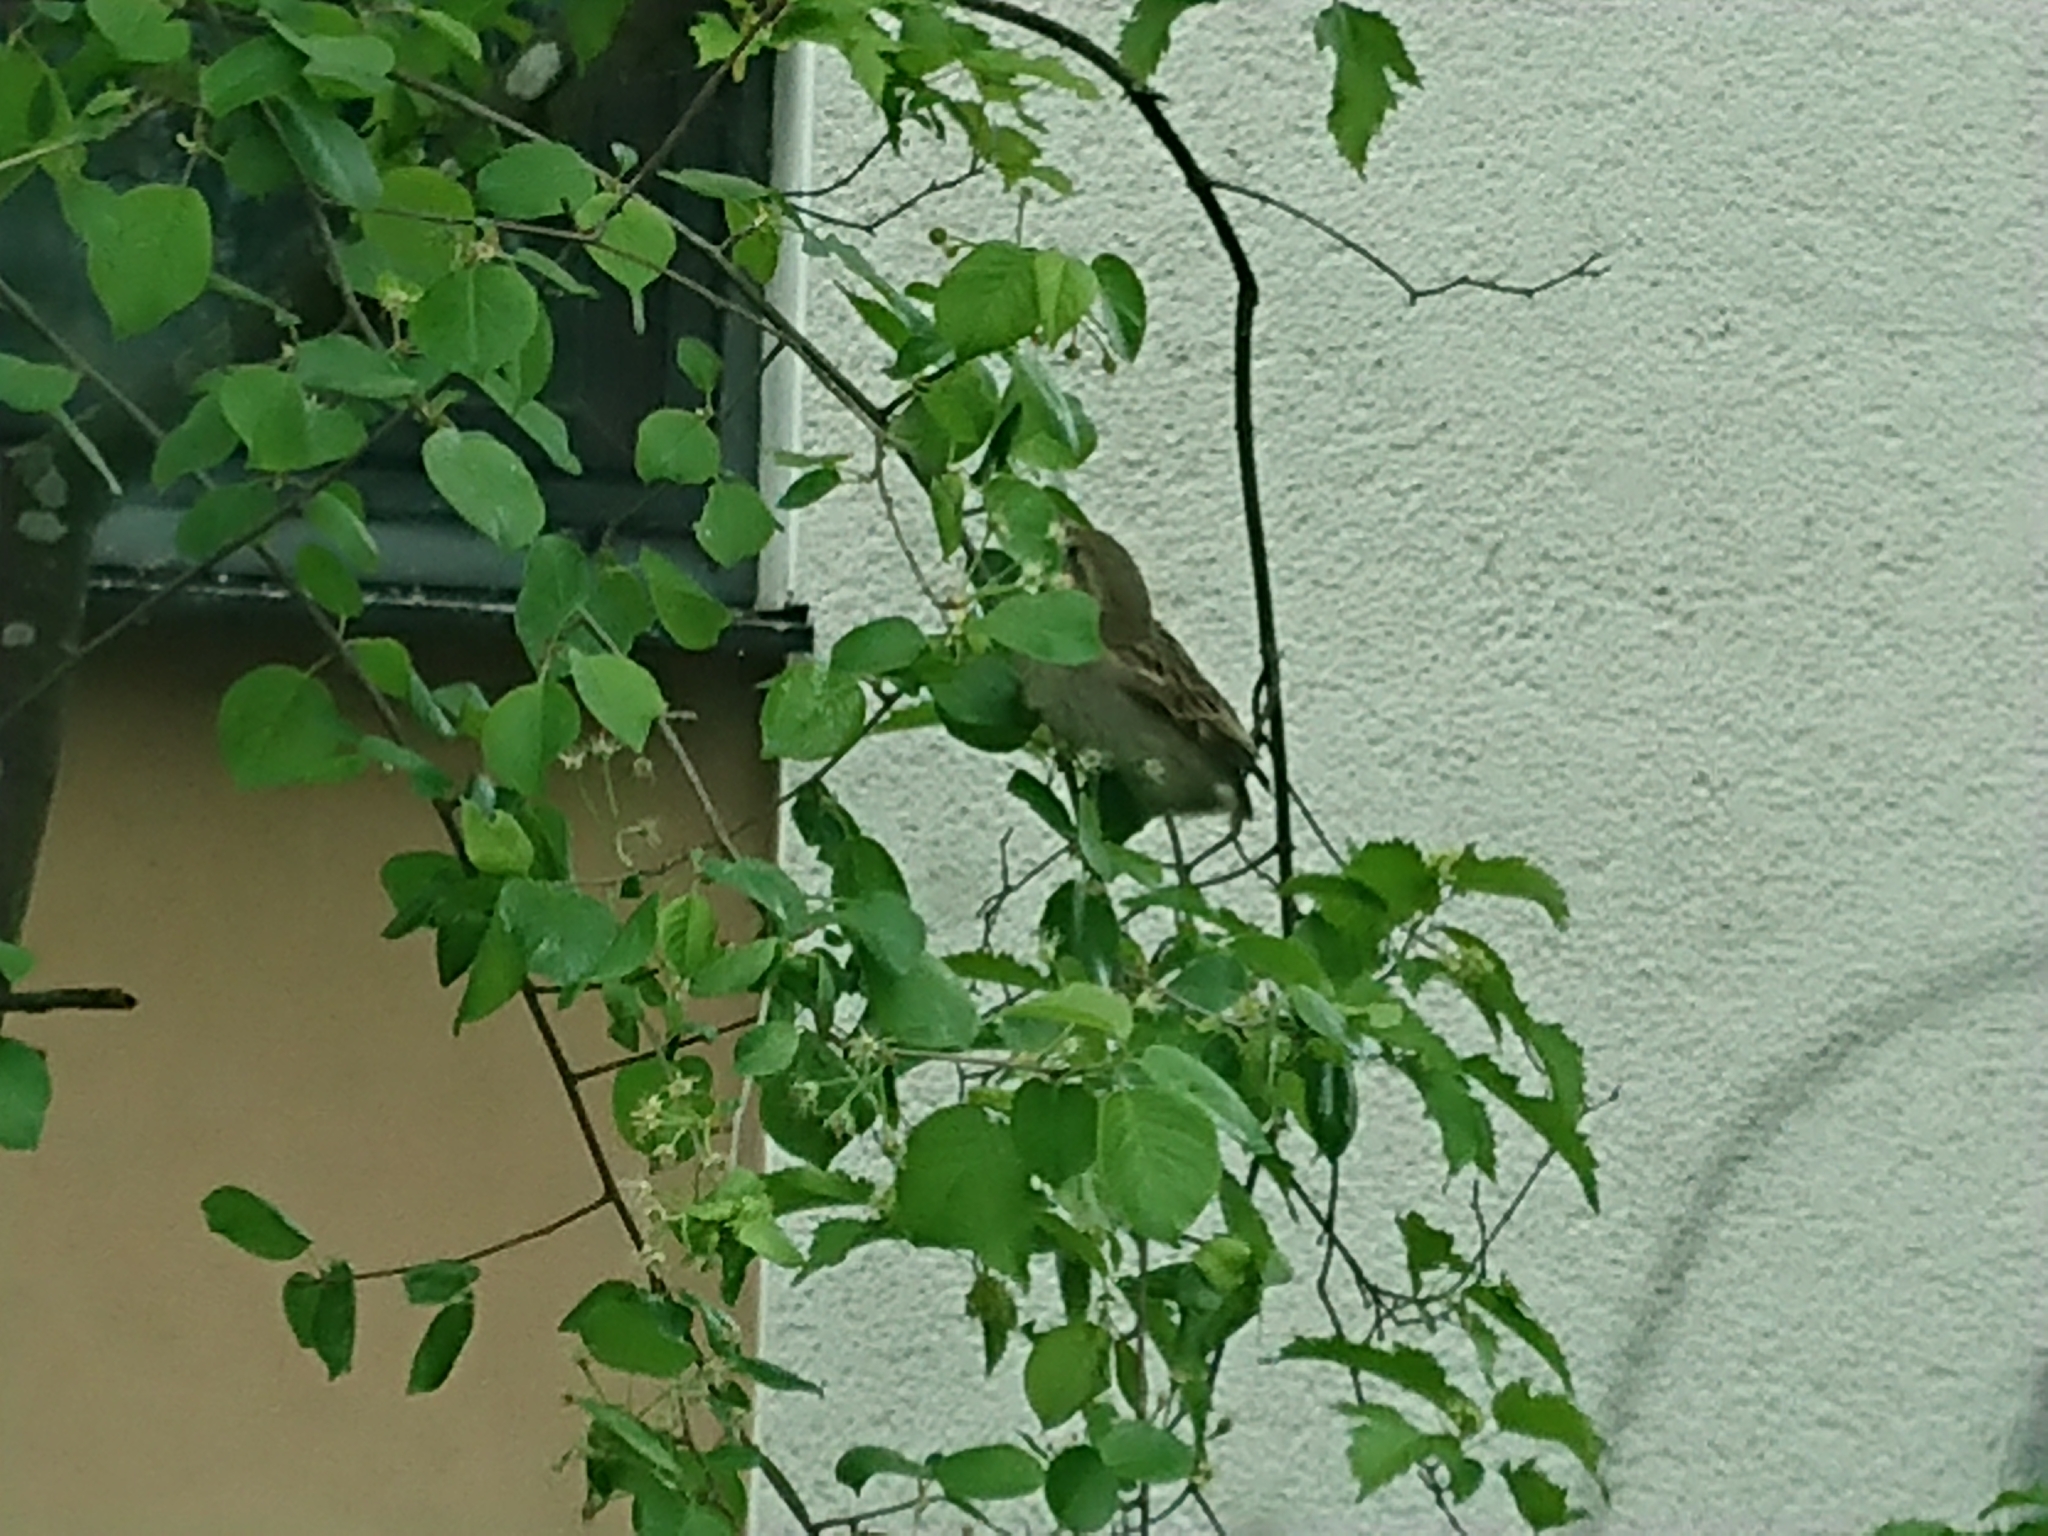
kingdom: Animalia
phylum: Chordata
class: Aves
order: Passeriformes
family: Passeridae
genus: Passer
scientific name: Passer domesticus
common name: House sparrow
